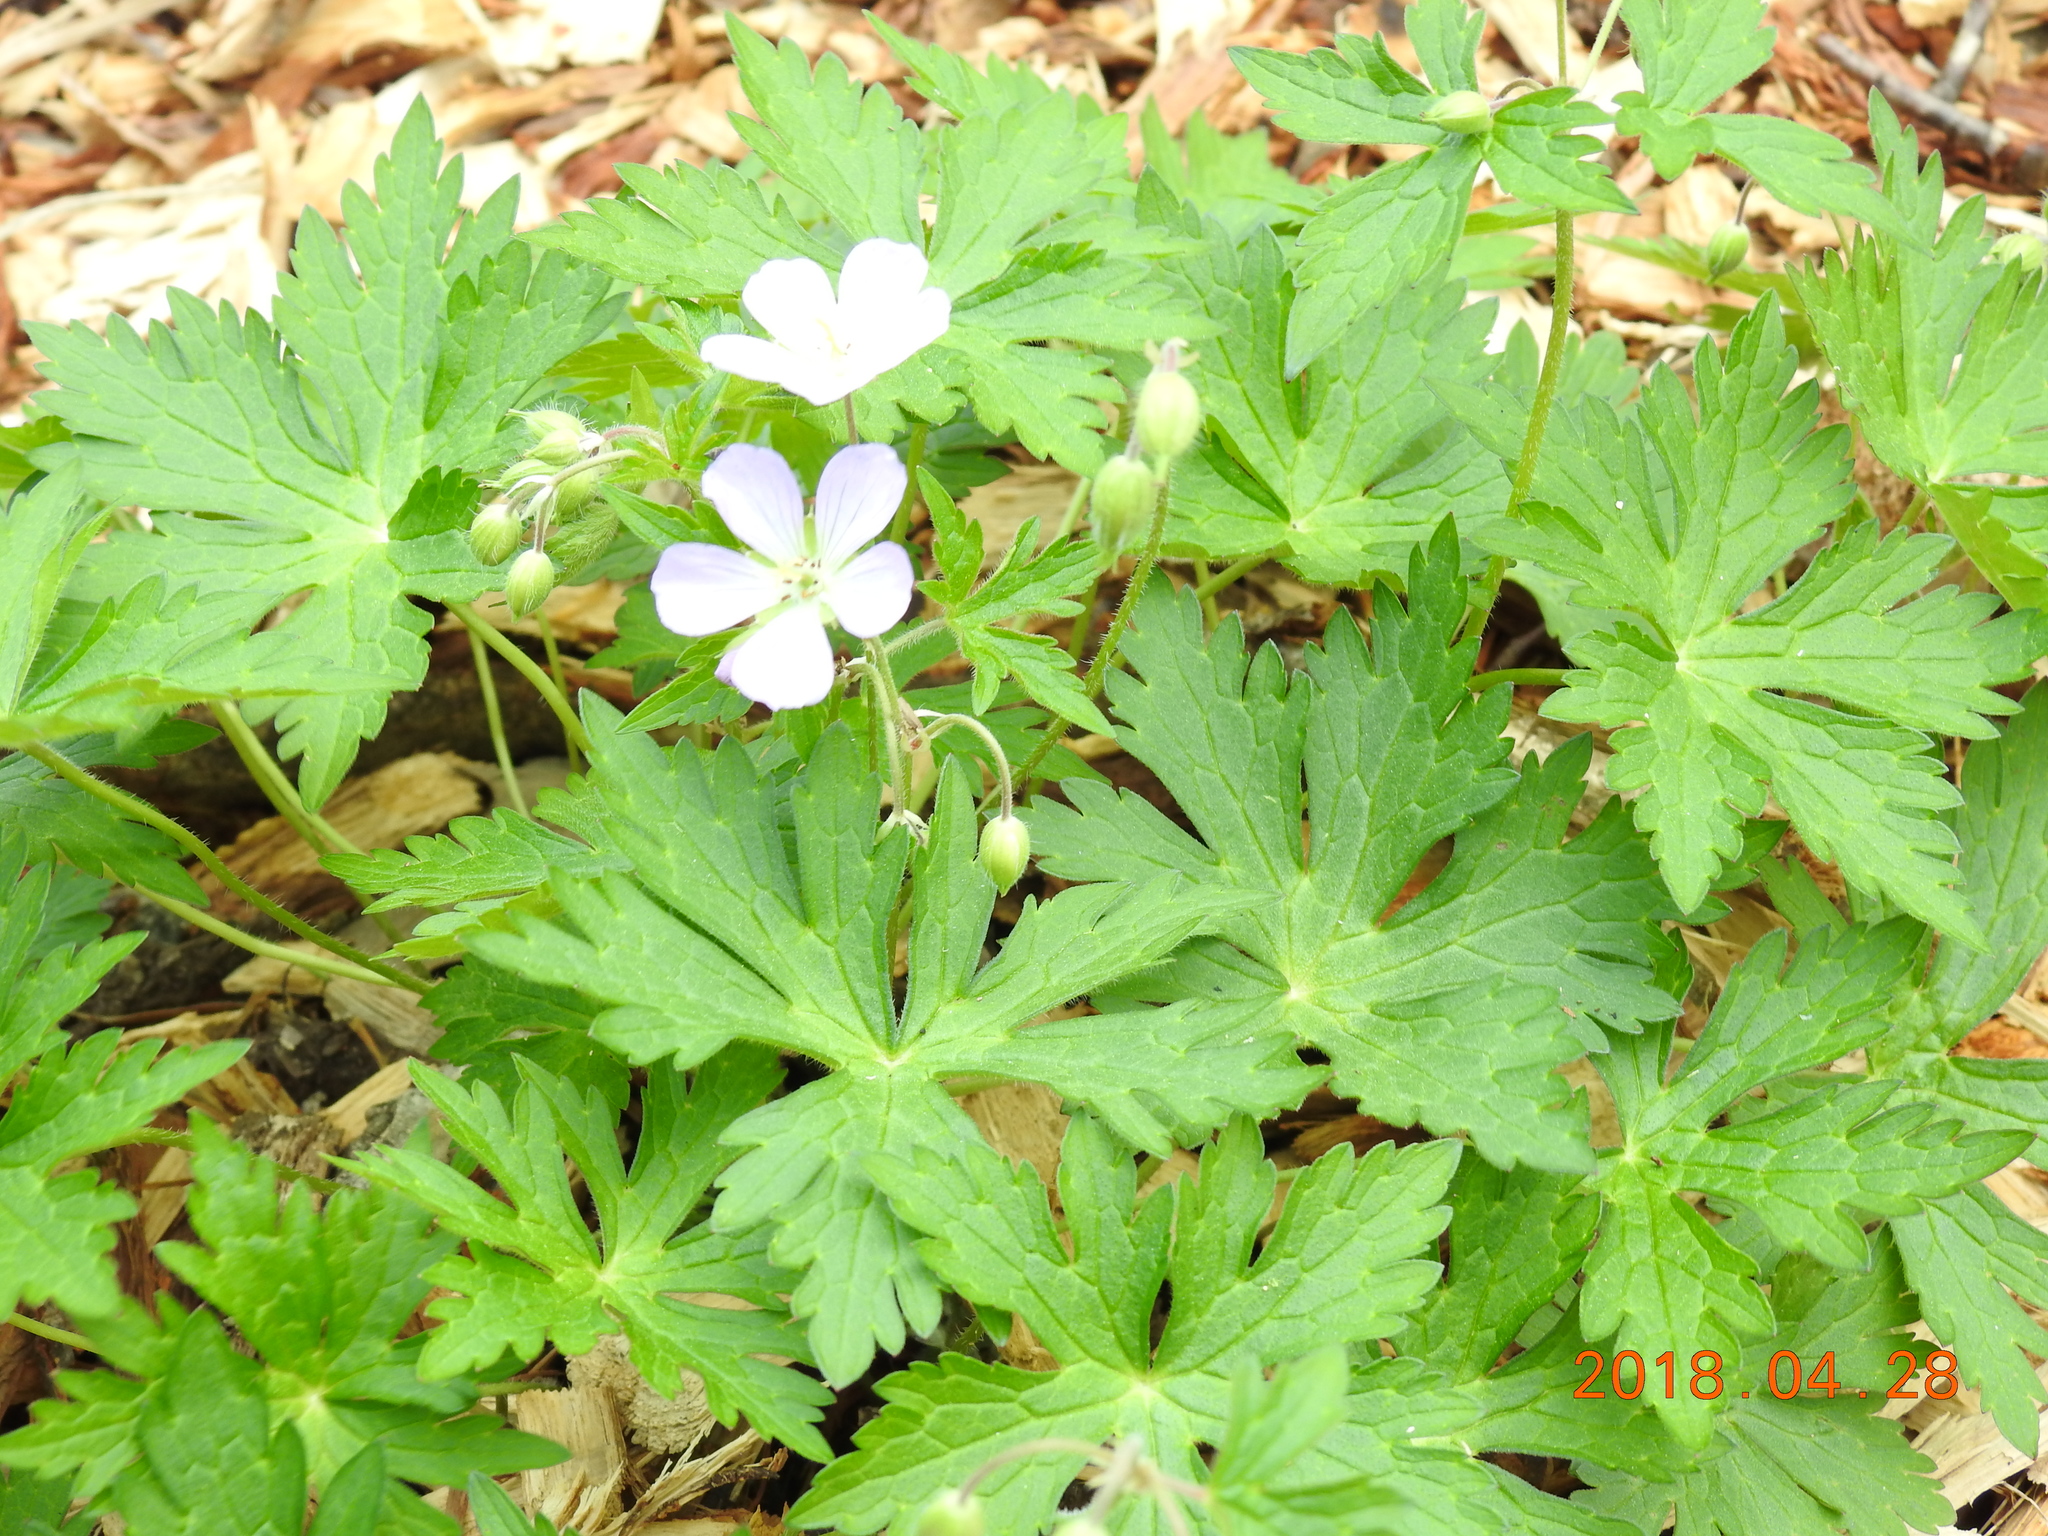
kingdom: Plantae
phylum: Tracheophyta
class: Magnoliopsida
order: Geraniales
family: Geraniaceae
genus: Geranium
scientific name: Geranium maculatum
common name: Spotted geranium
